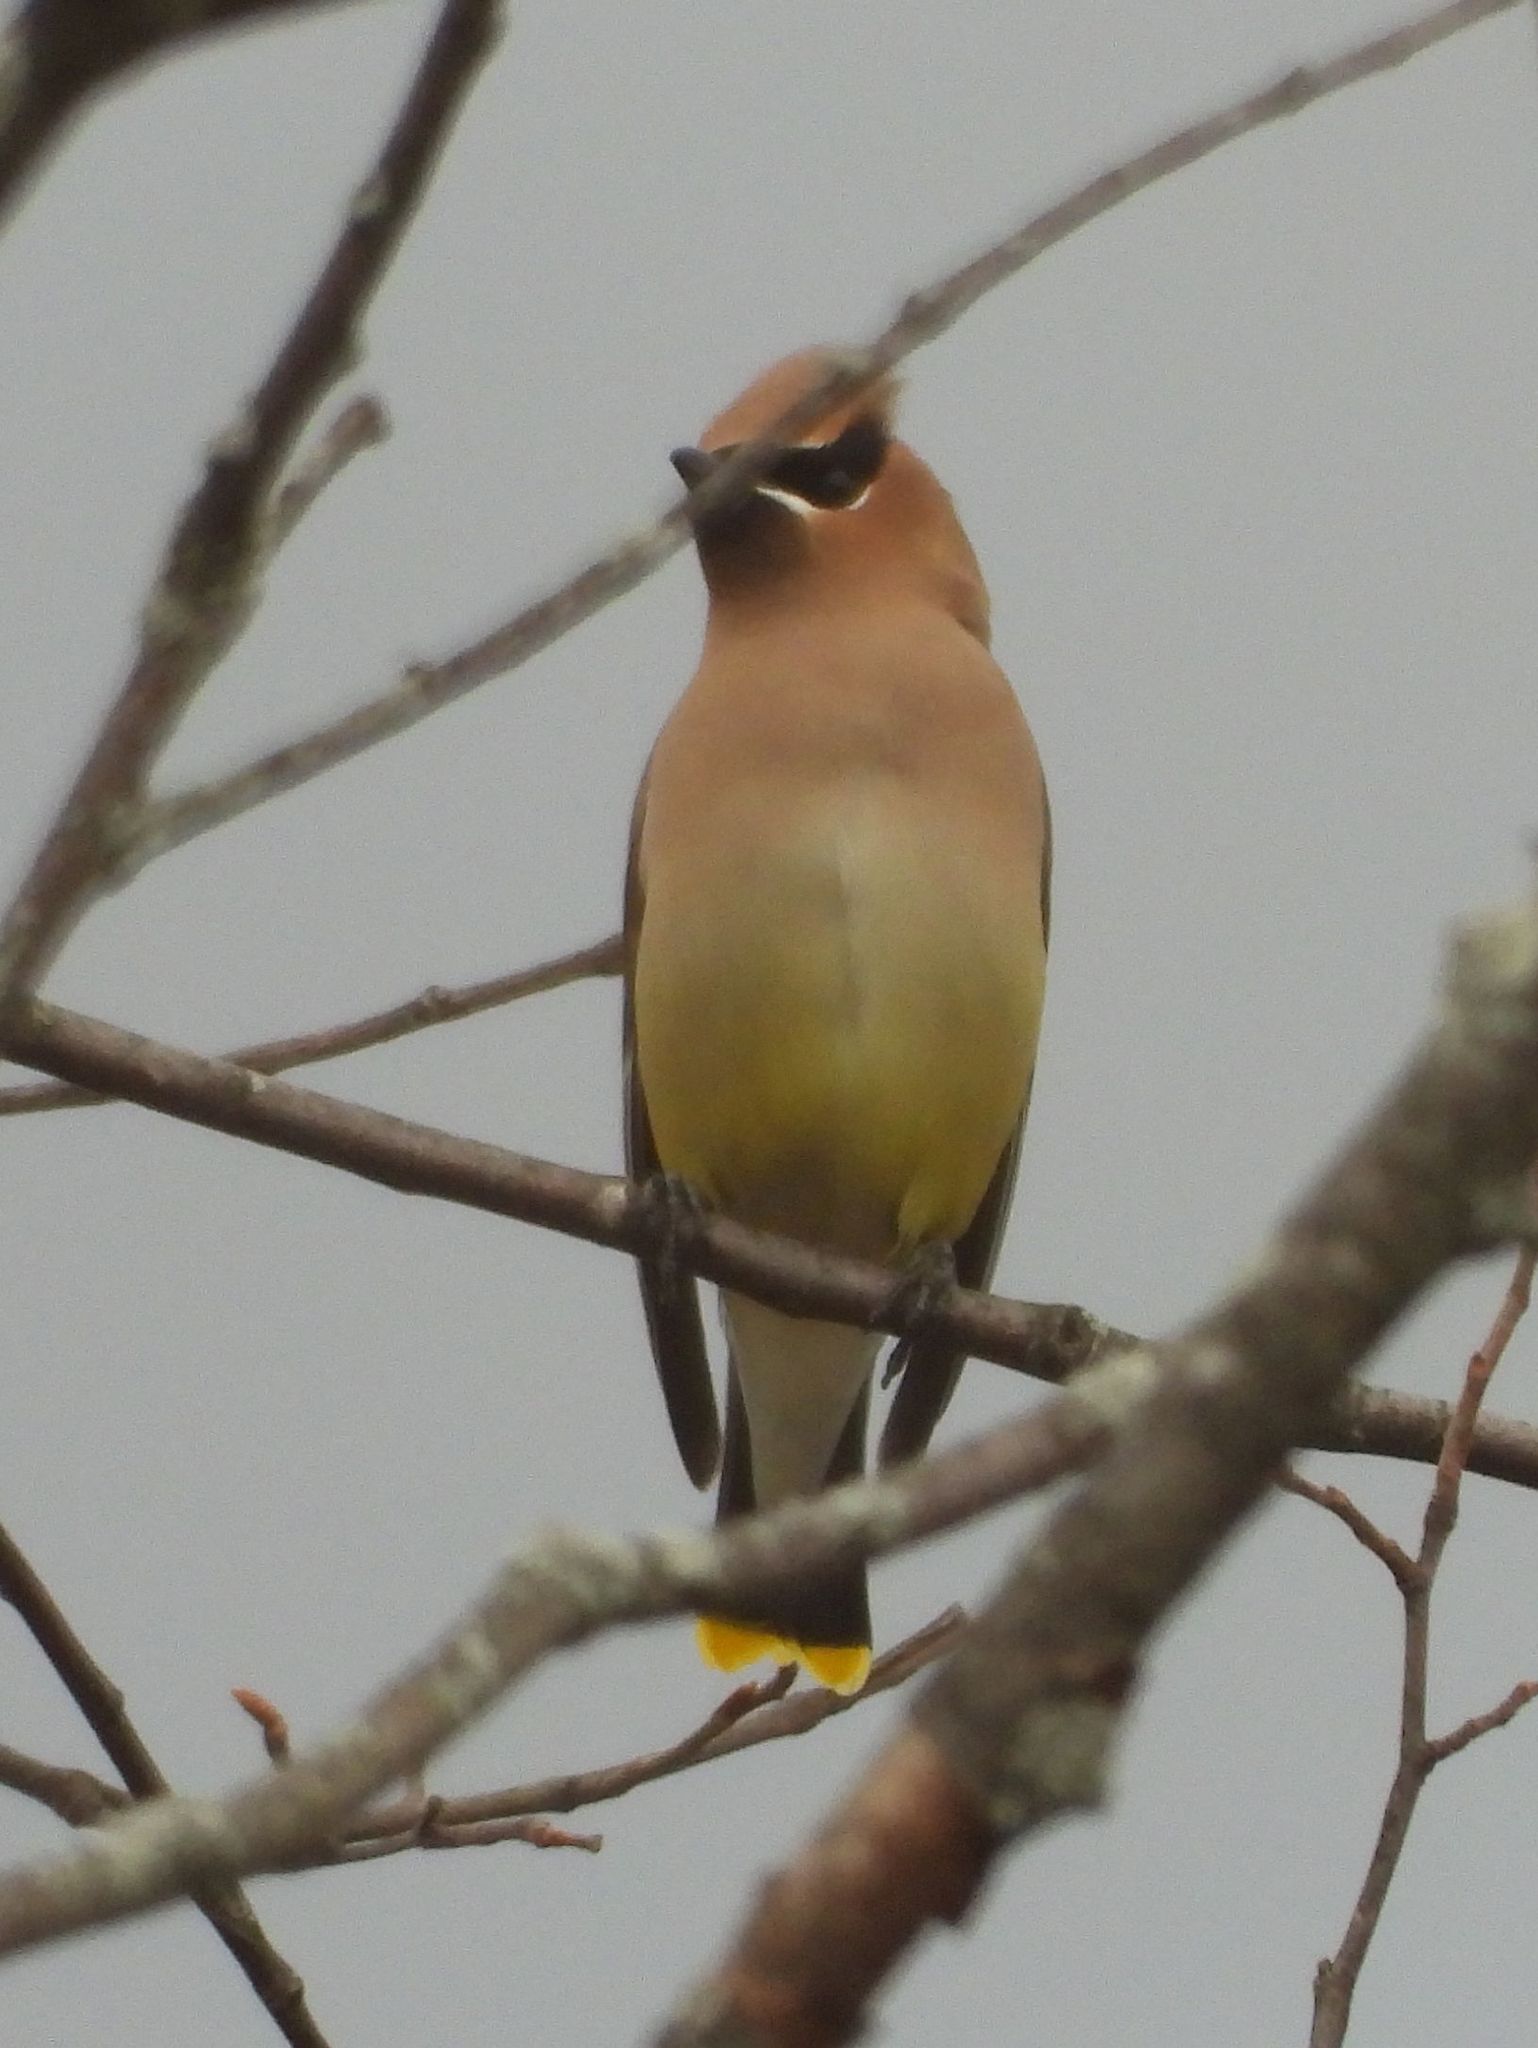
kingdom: Animalia
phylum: Chordata
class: Aves
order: Passeriformes
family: Bombycillidae
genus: Bombycilla
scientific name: Bombycilla cedrorum
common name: Cedar waxwing
